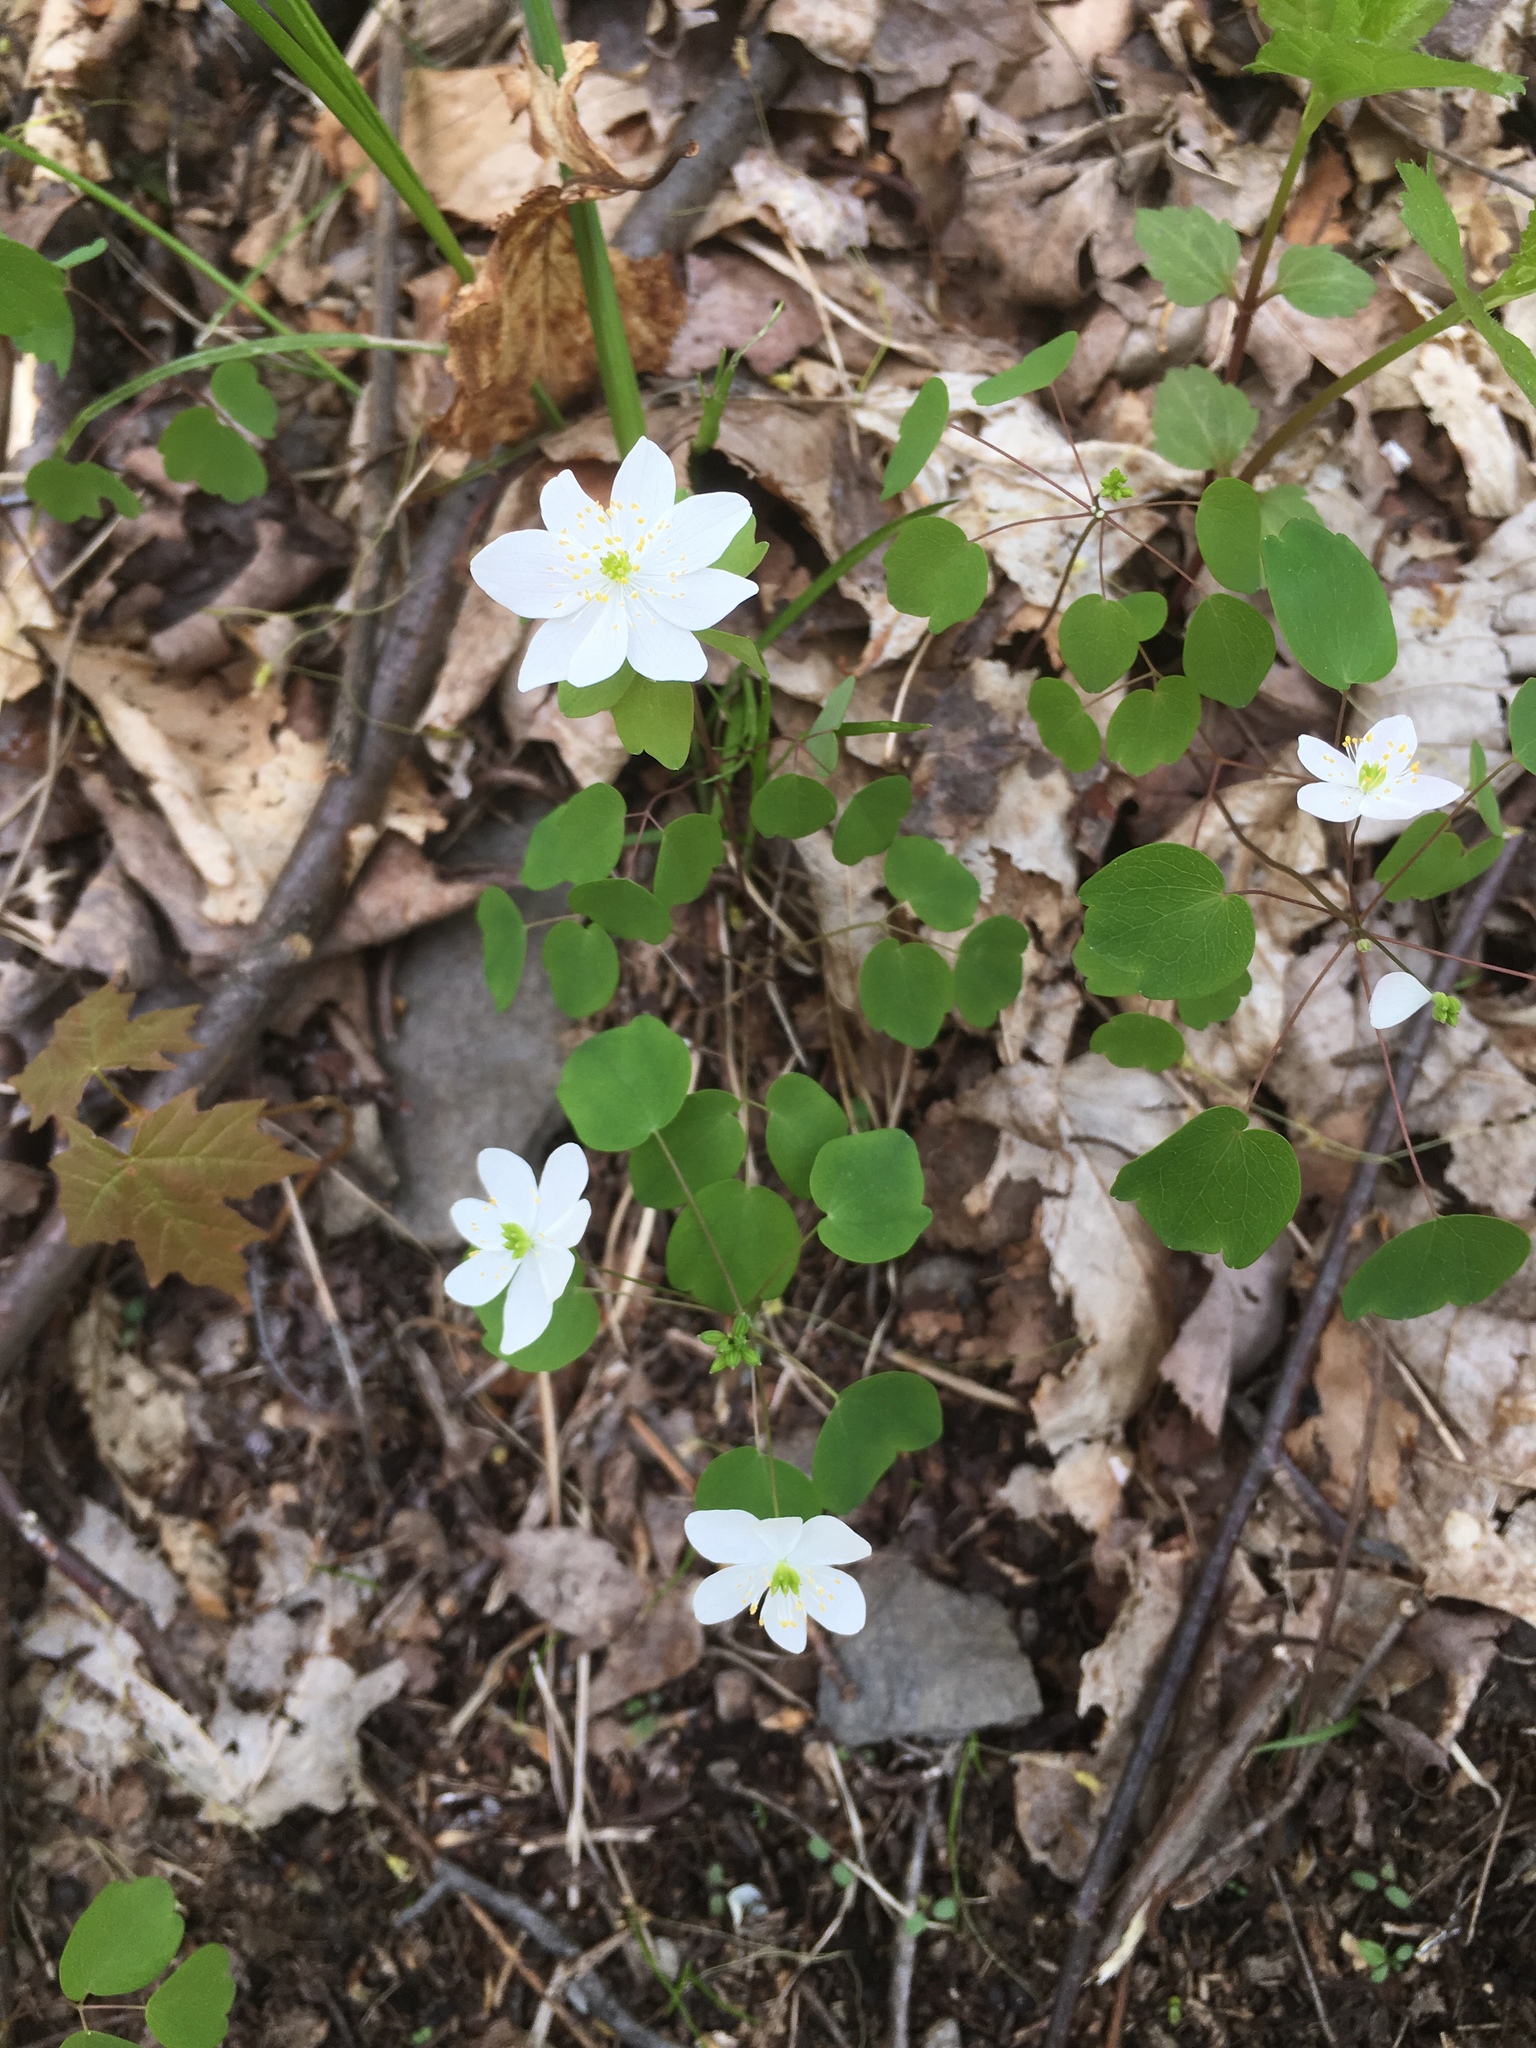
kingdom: Plantae
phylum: Tracheophyta
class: Magnoliopsida
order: Ranunculales
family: Ranunculaceae
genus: Thalictrum
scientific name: Thalictrum thalictroides
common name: Rue-anemone
